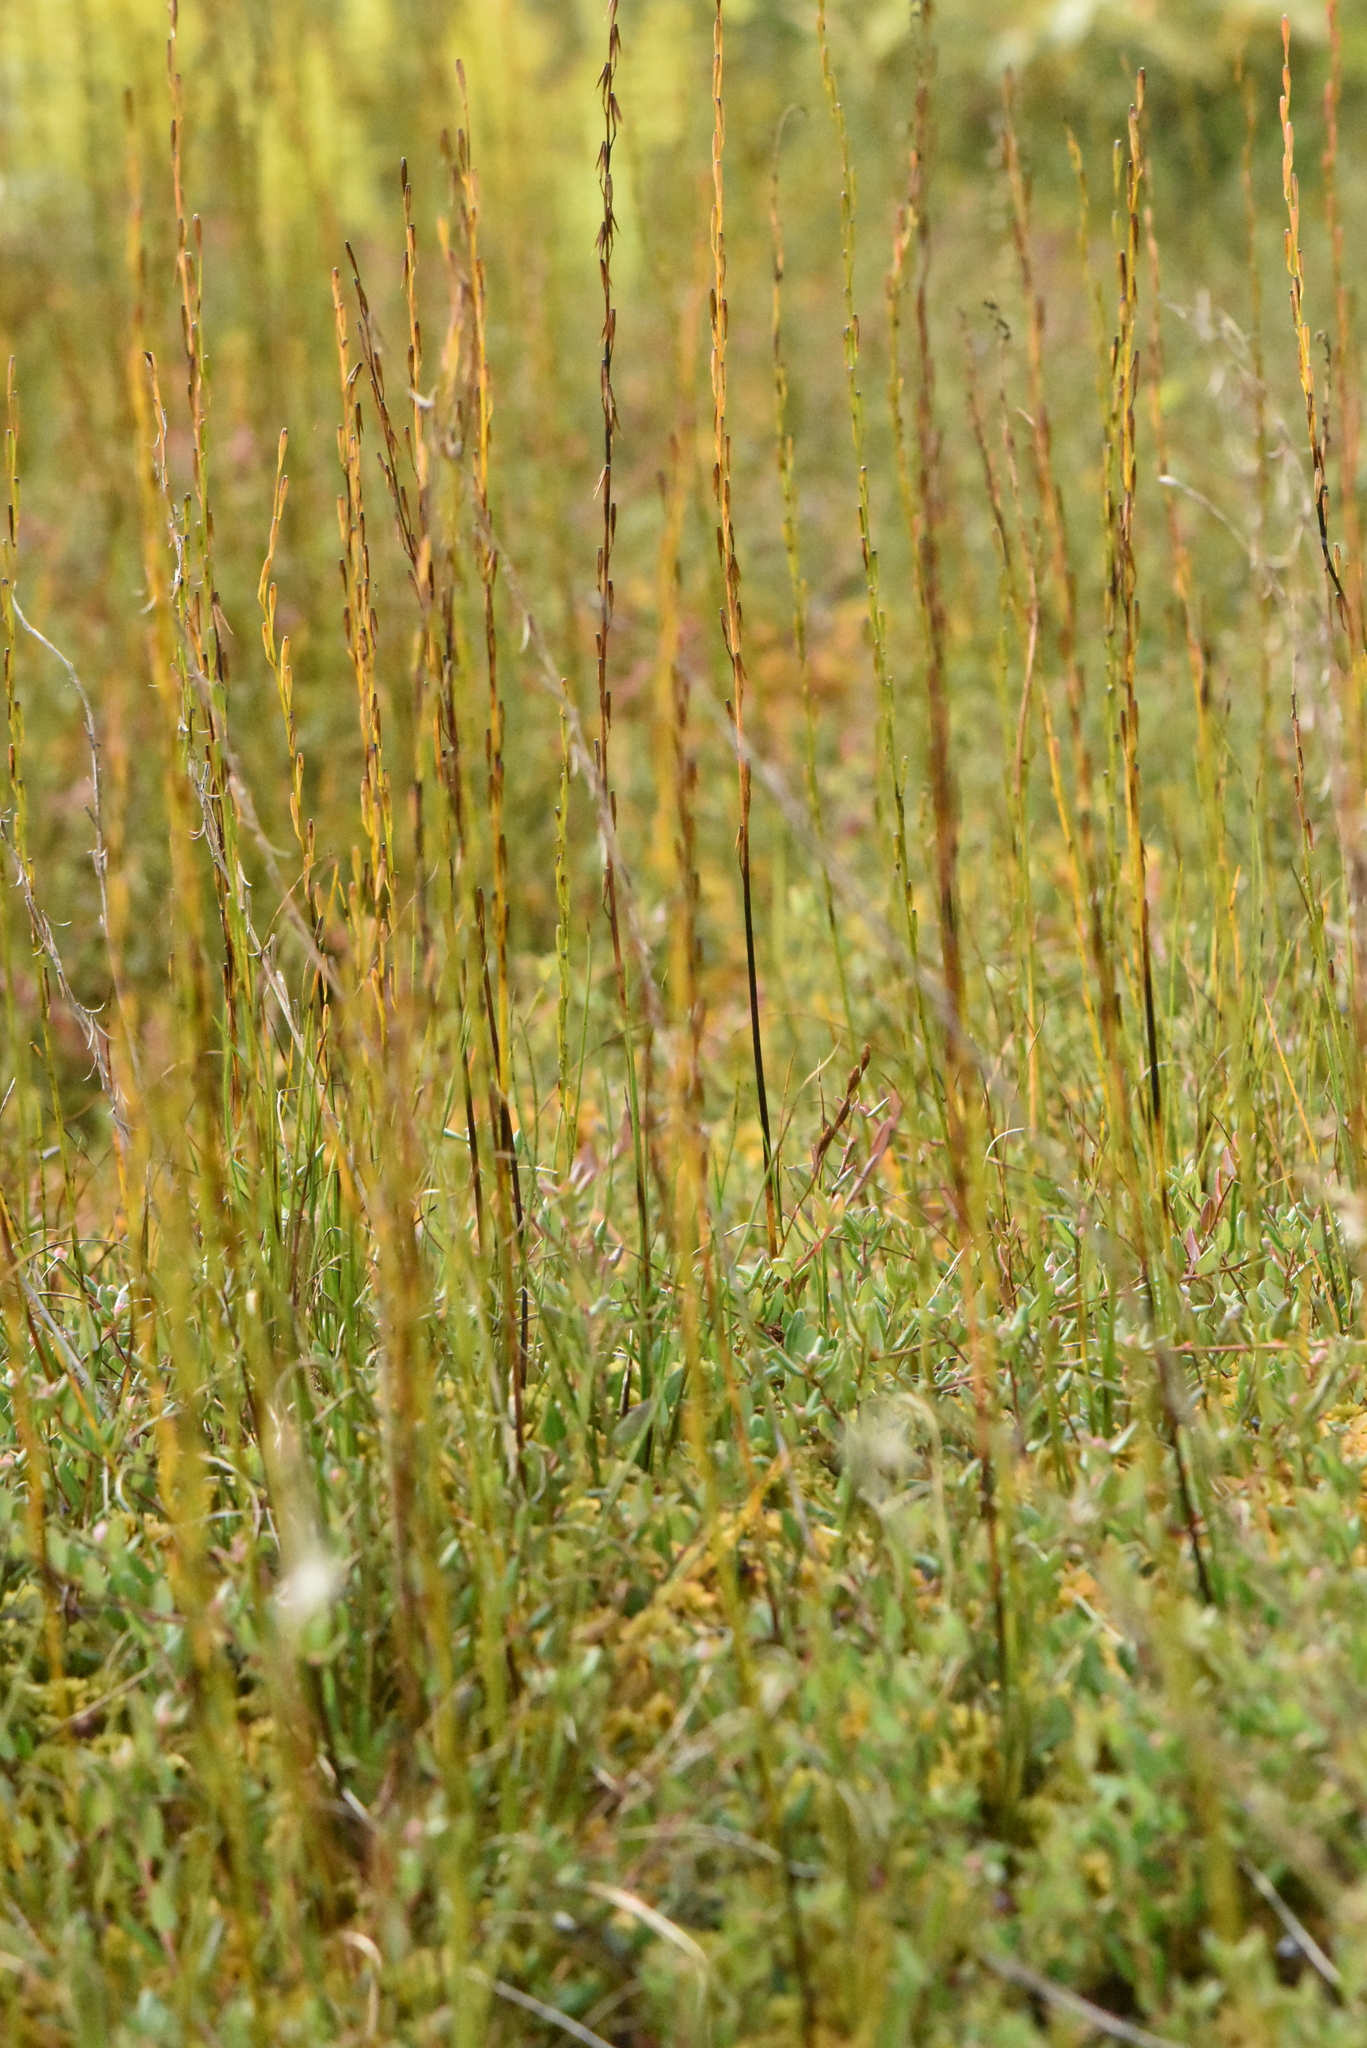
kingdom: Plantae
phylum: Tracheophyta
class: Liliopsida
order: Alismatales
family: Juncaginaceae
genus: Triglochin
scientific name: Triglochin palustris
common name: Marsh arrowgrass
